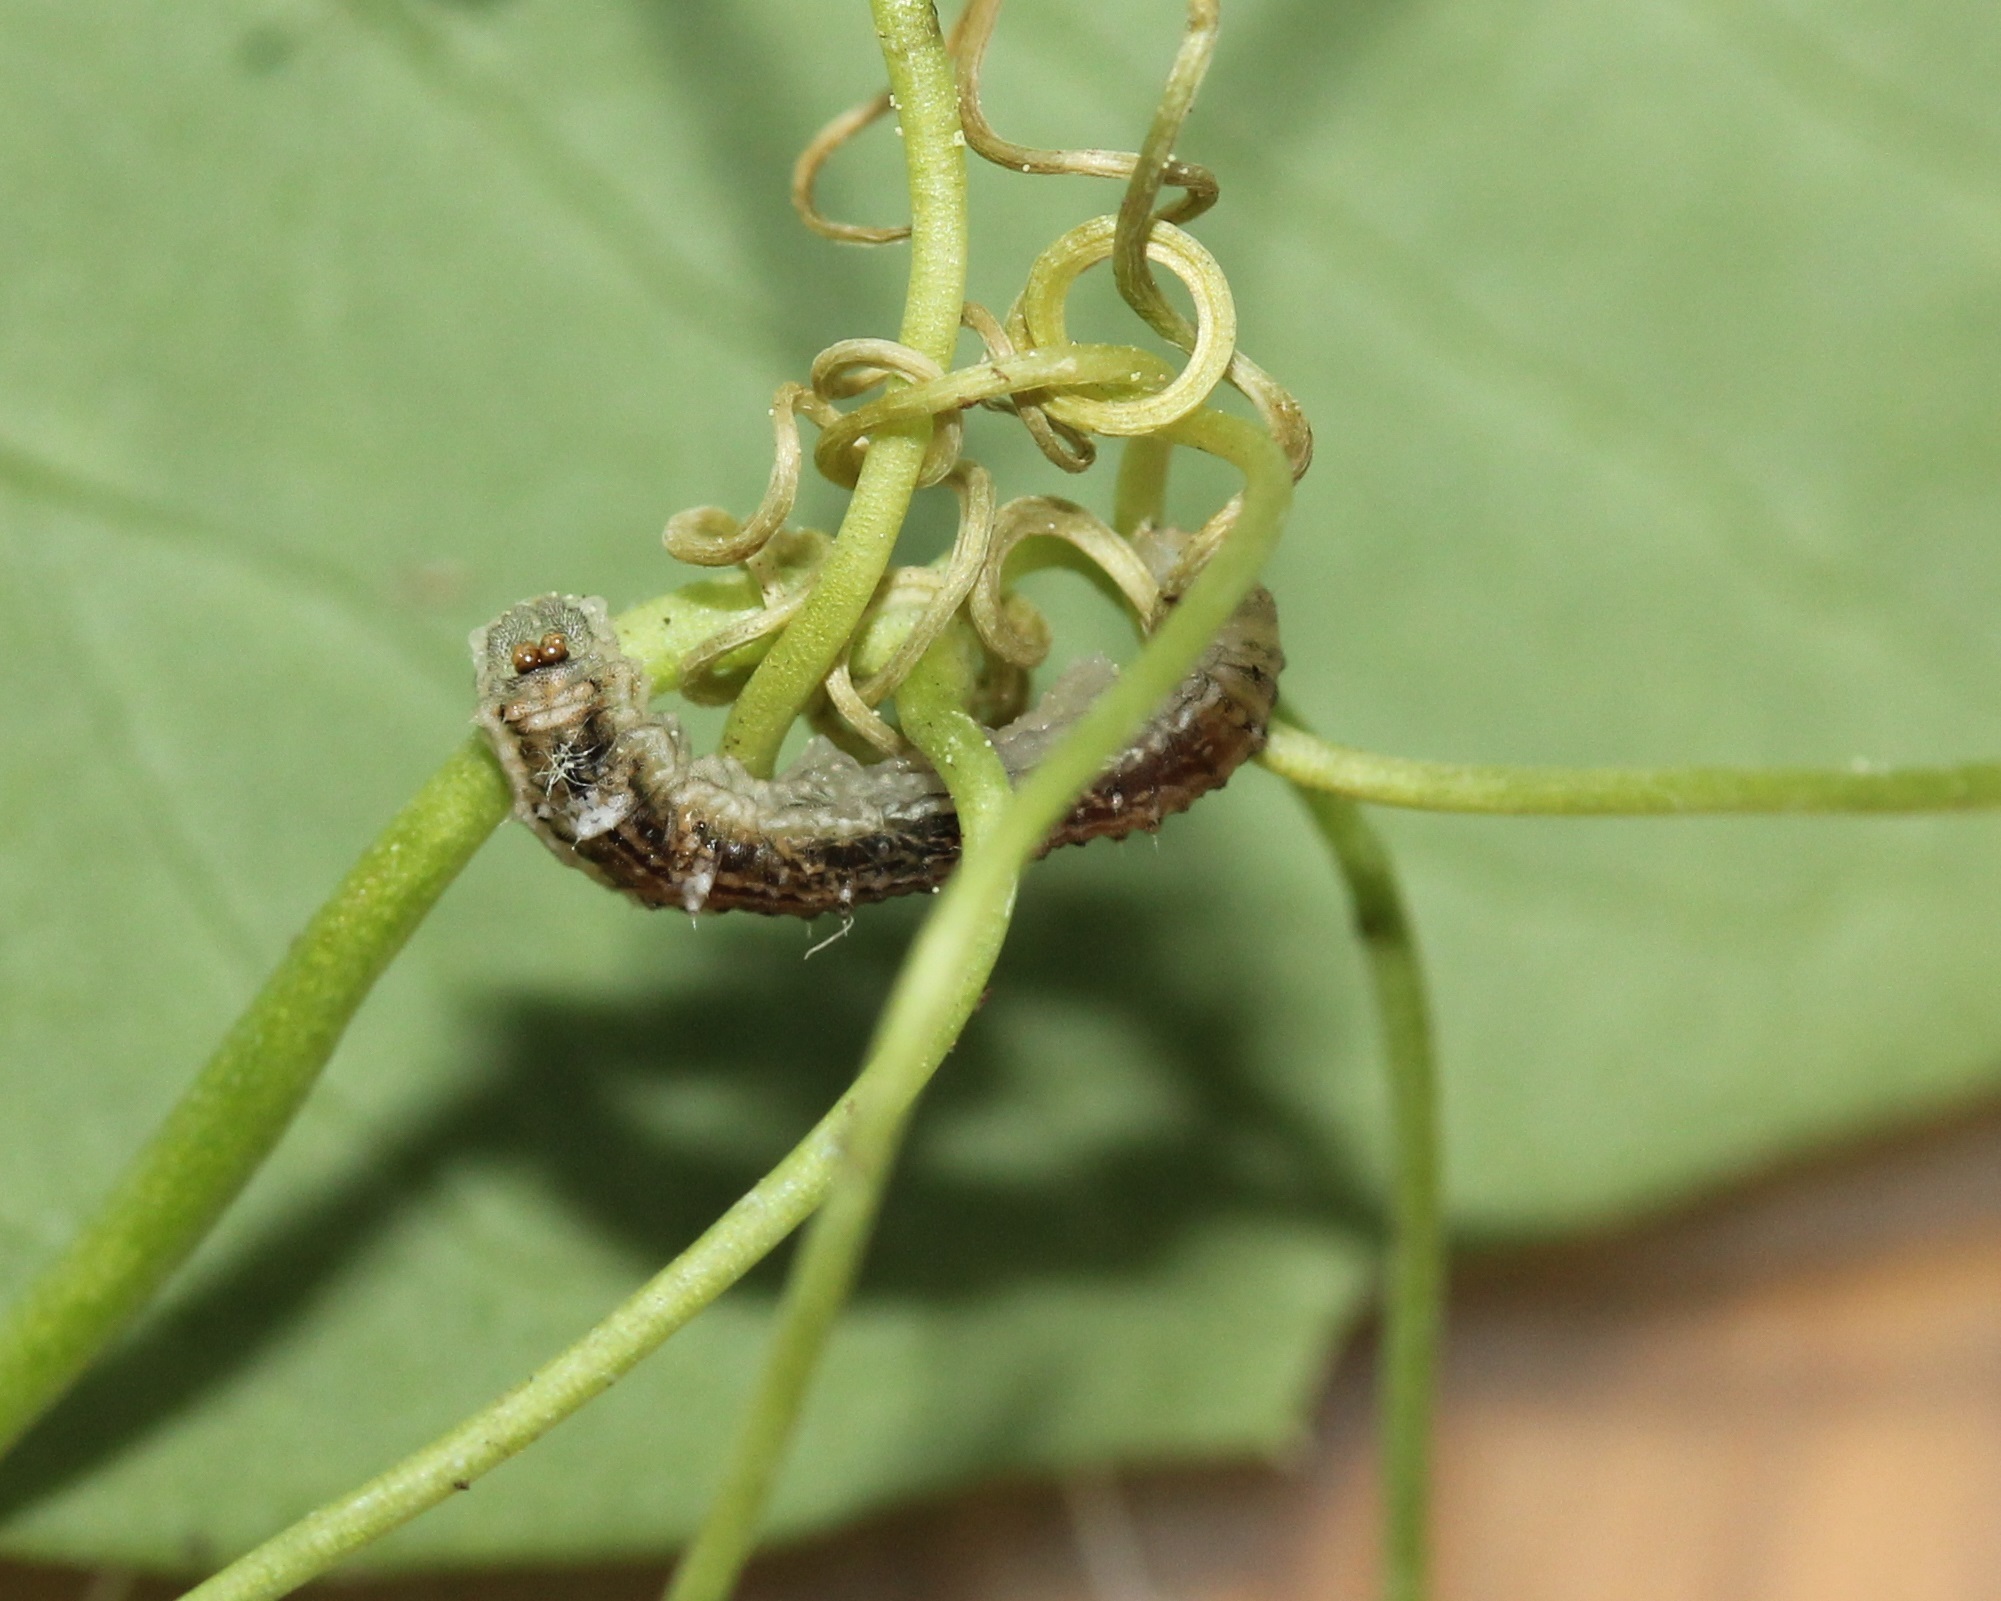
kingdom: Animalia
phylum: Arthropoda
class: Insecta
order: Diptera
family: Syrphidae
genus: Eupeodes
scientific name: Eupeodes americanus
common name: Long-tailed aphideater
